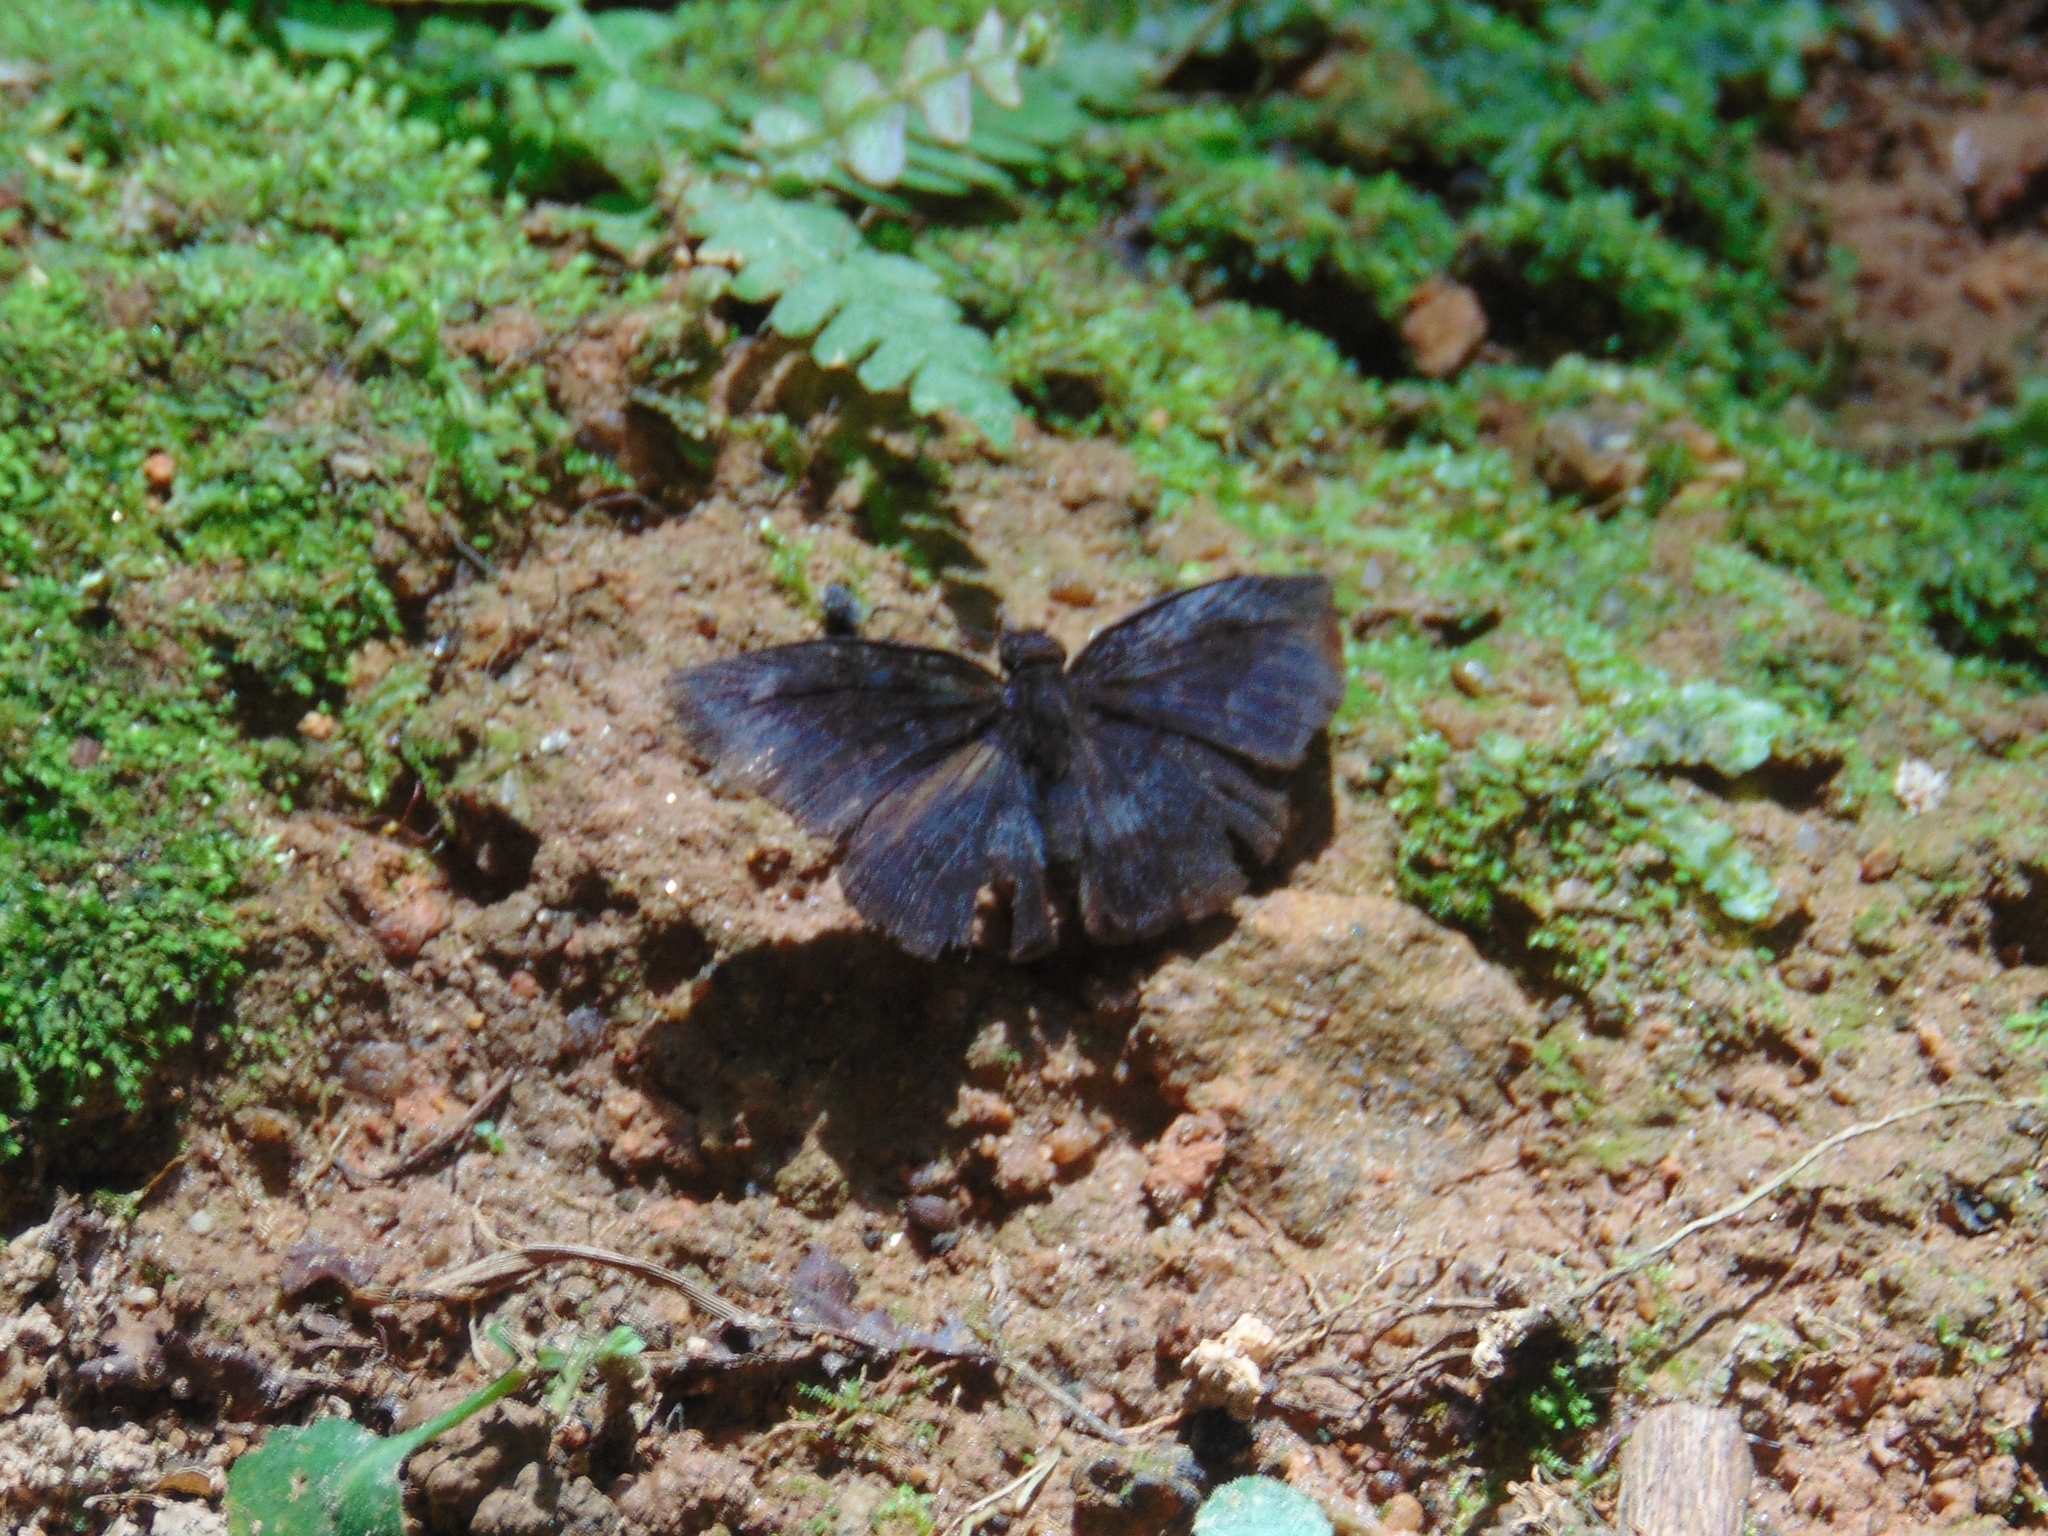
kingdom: Animalia
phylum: Arthropoda
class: Insecta
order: Lepidoptera
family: Hesperiidae
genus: Anastrus
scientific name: Anastrus ulpianus
